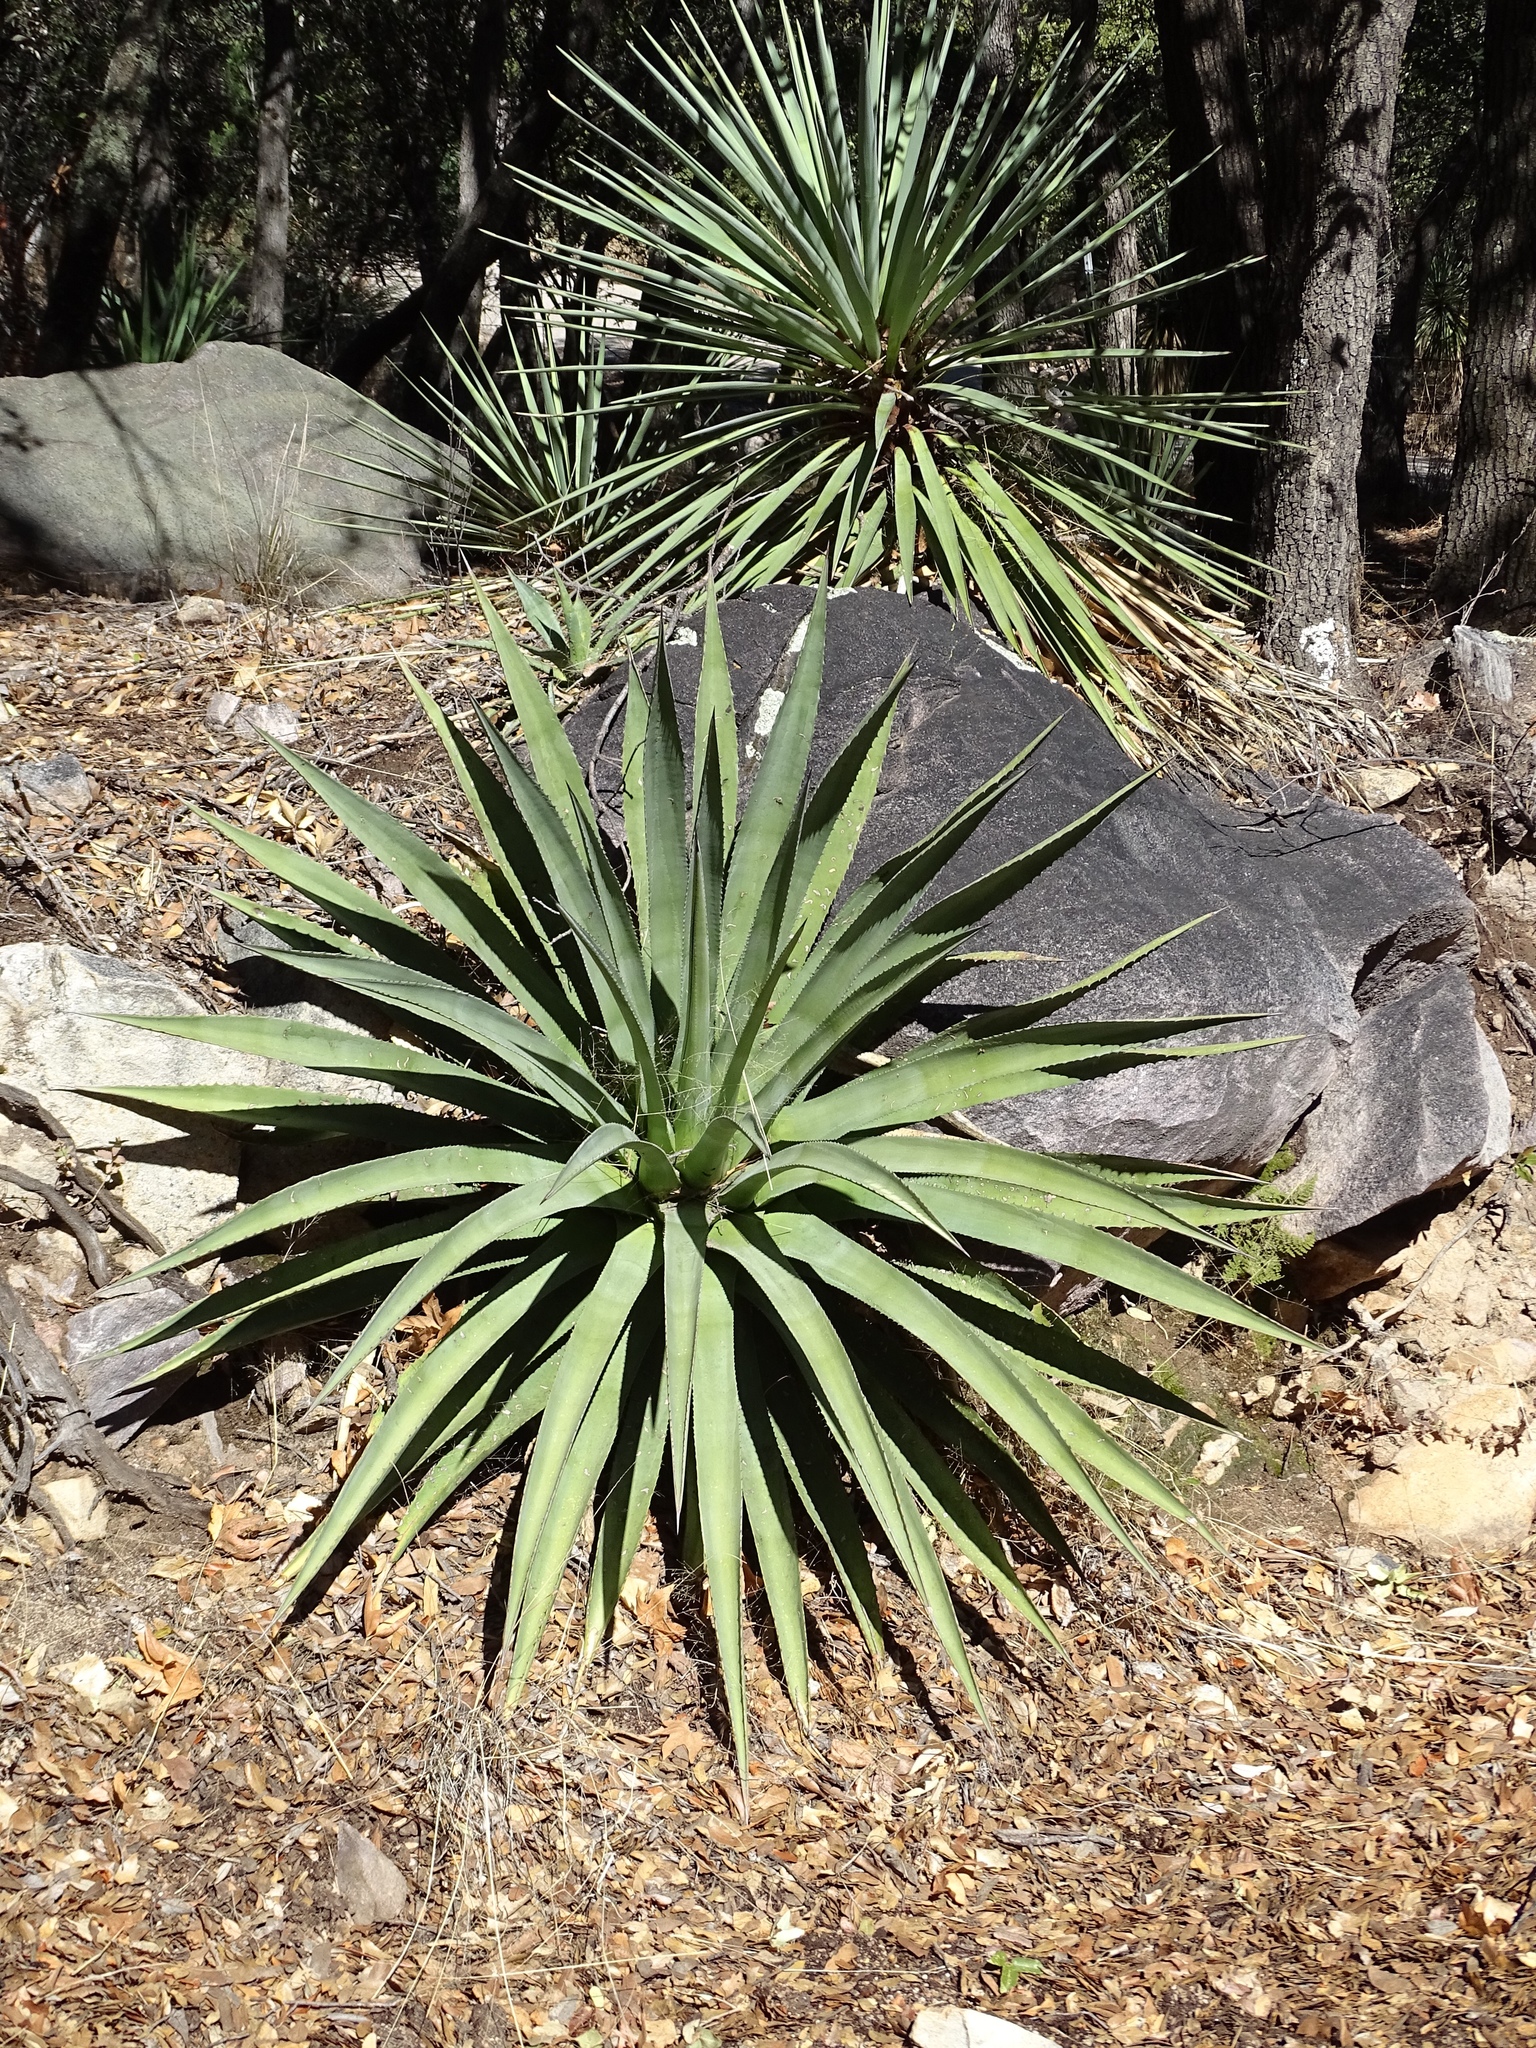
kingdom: Plantae
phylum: Tracheophyta
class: Liliopsida
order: Asparagales
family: Asparagaceae
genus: Agave
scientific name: Agave palmeri
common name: Palmer agave
